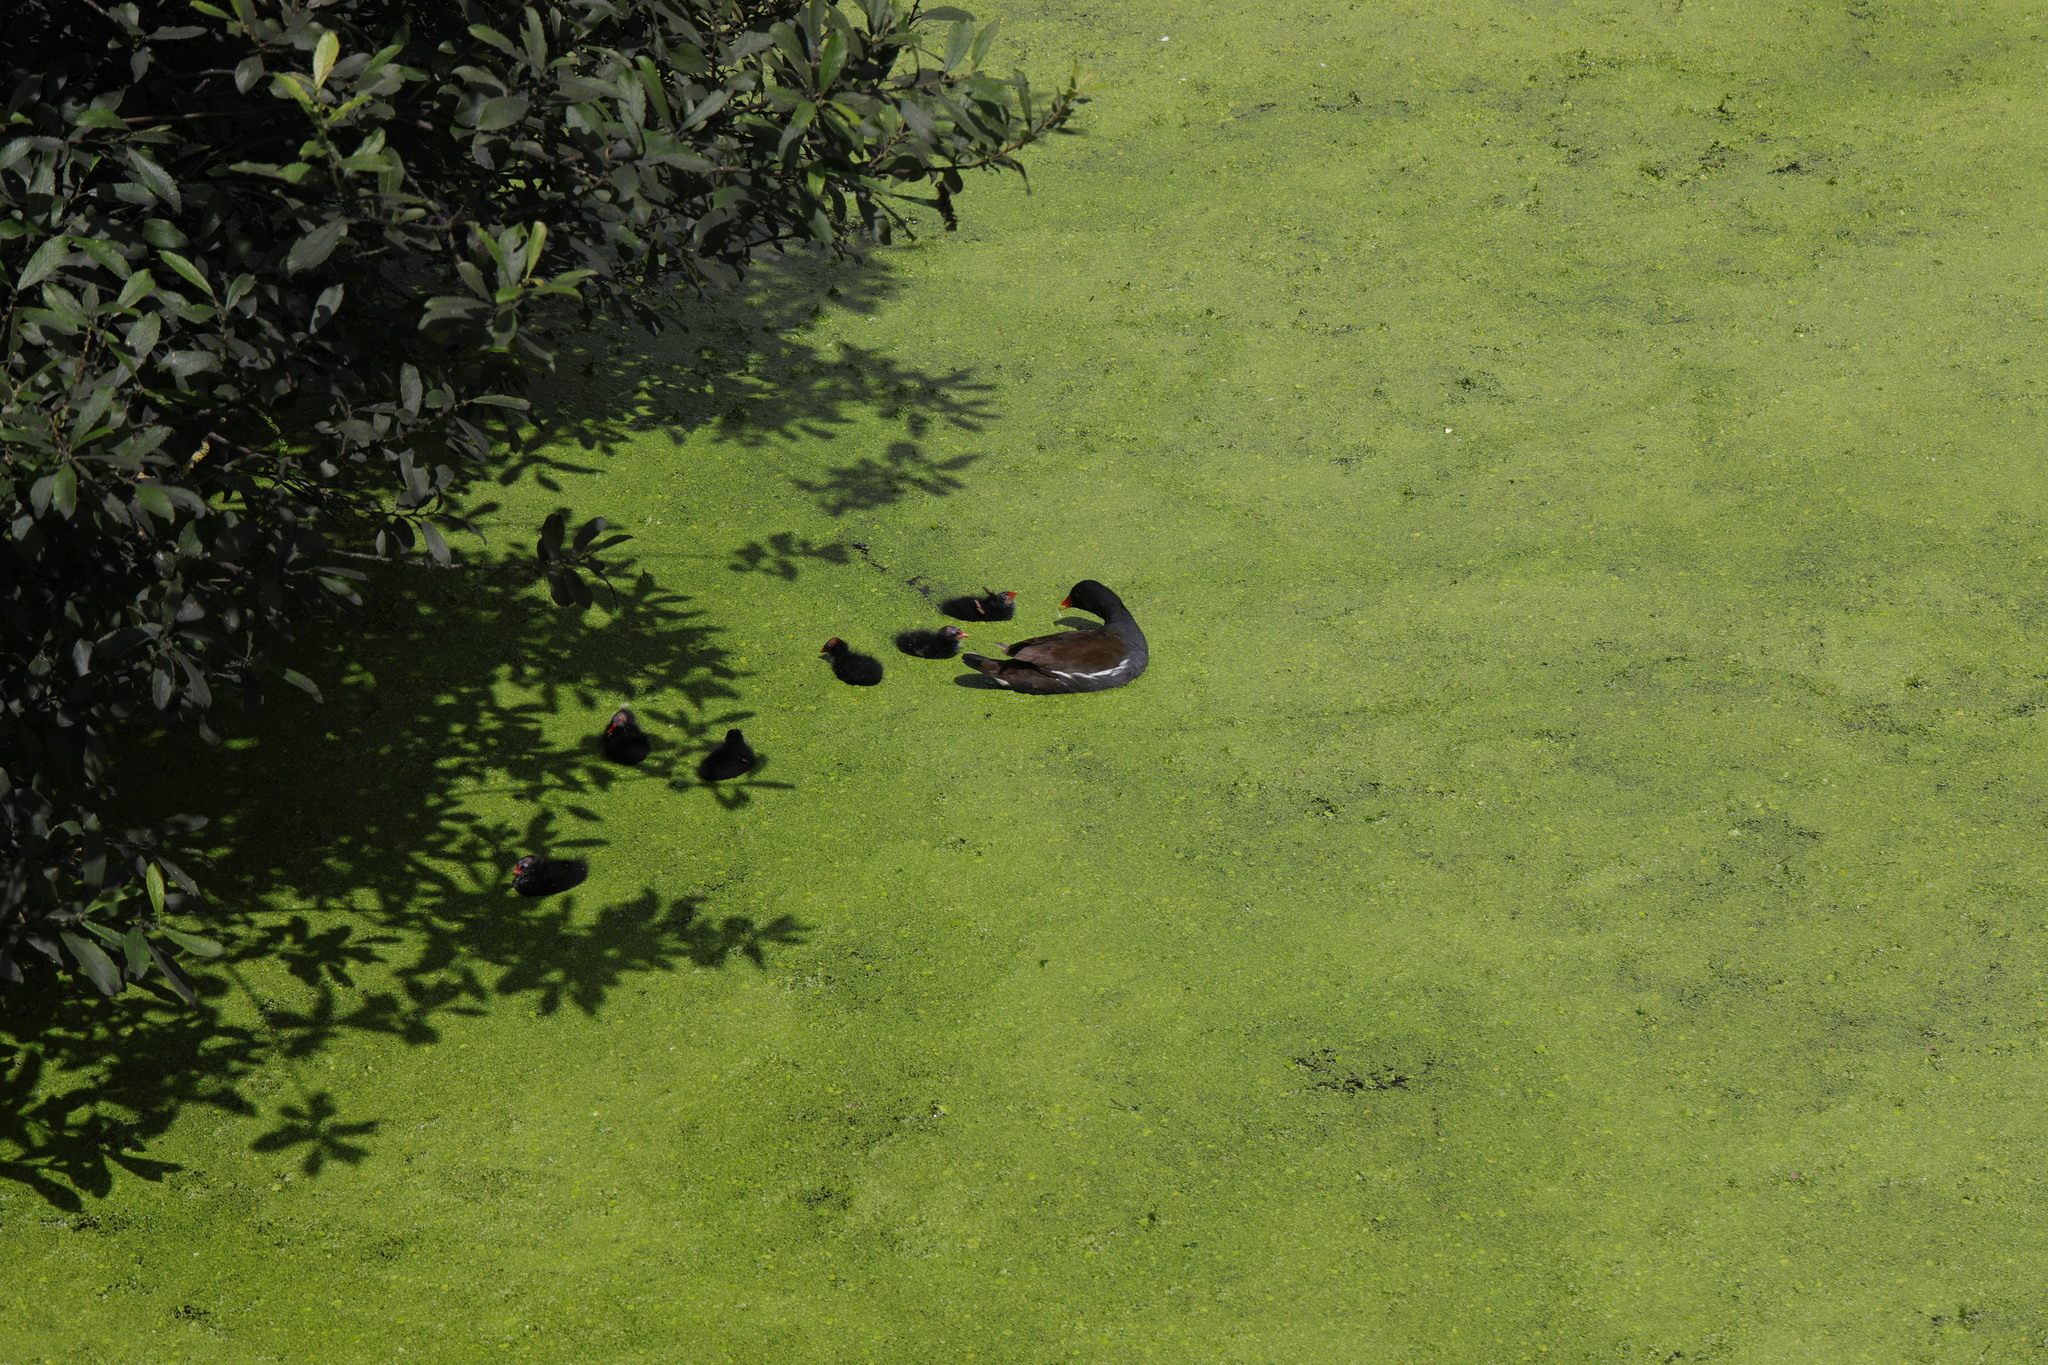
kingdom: Animalia
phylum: Chordata
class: Aves
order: Gruiformes
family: Rallidae
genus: Gallinula
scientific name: Gallinula chloropus
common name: Common moorhen
